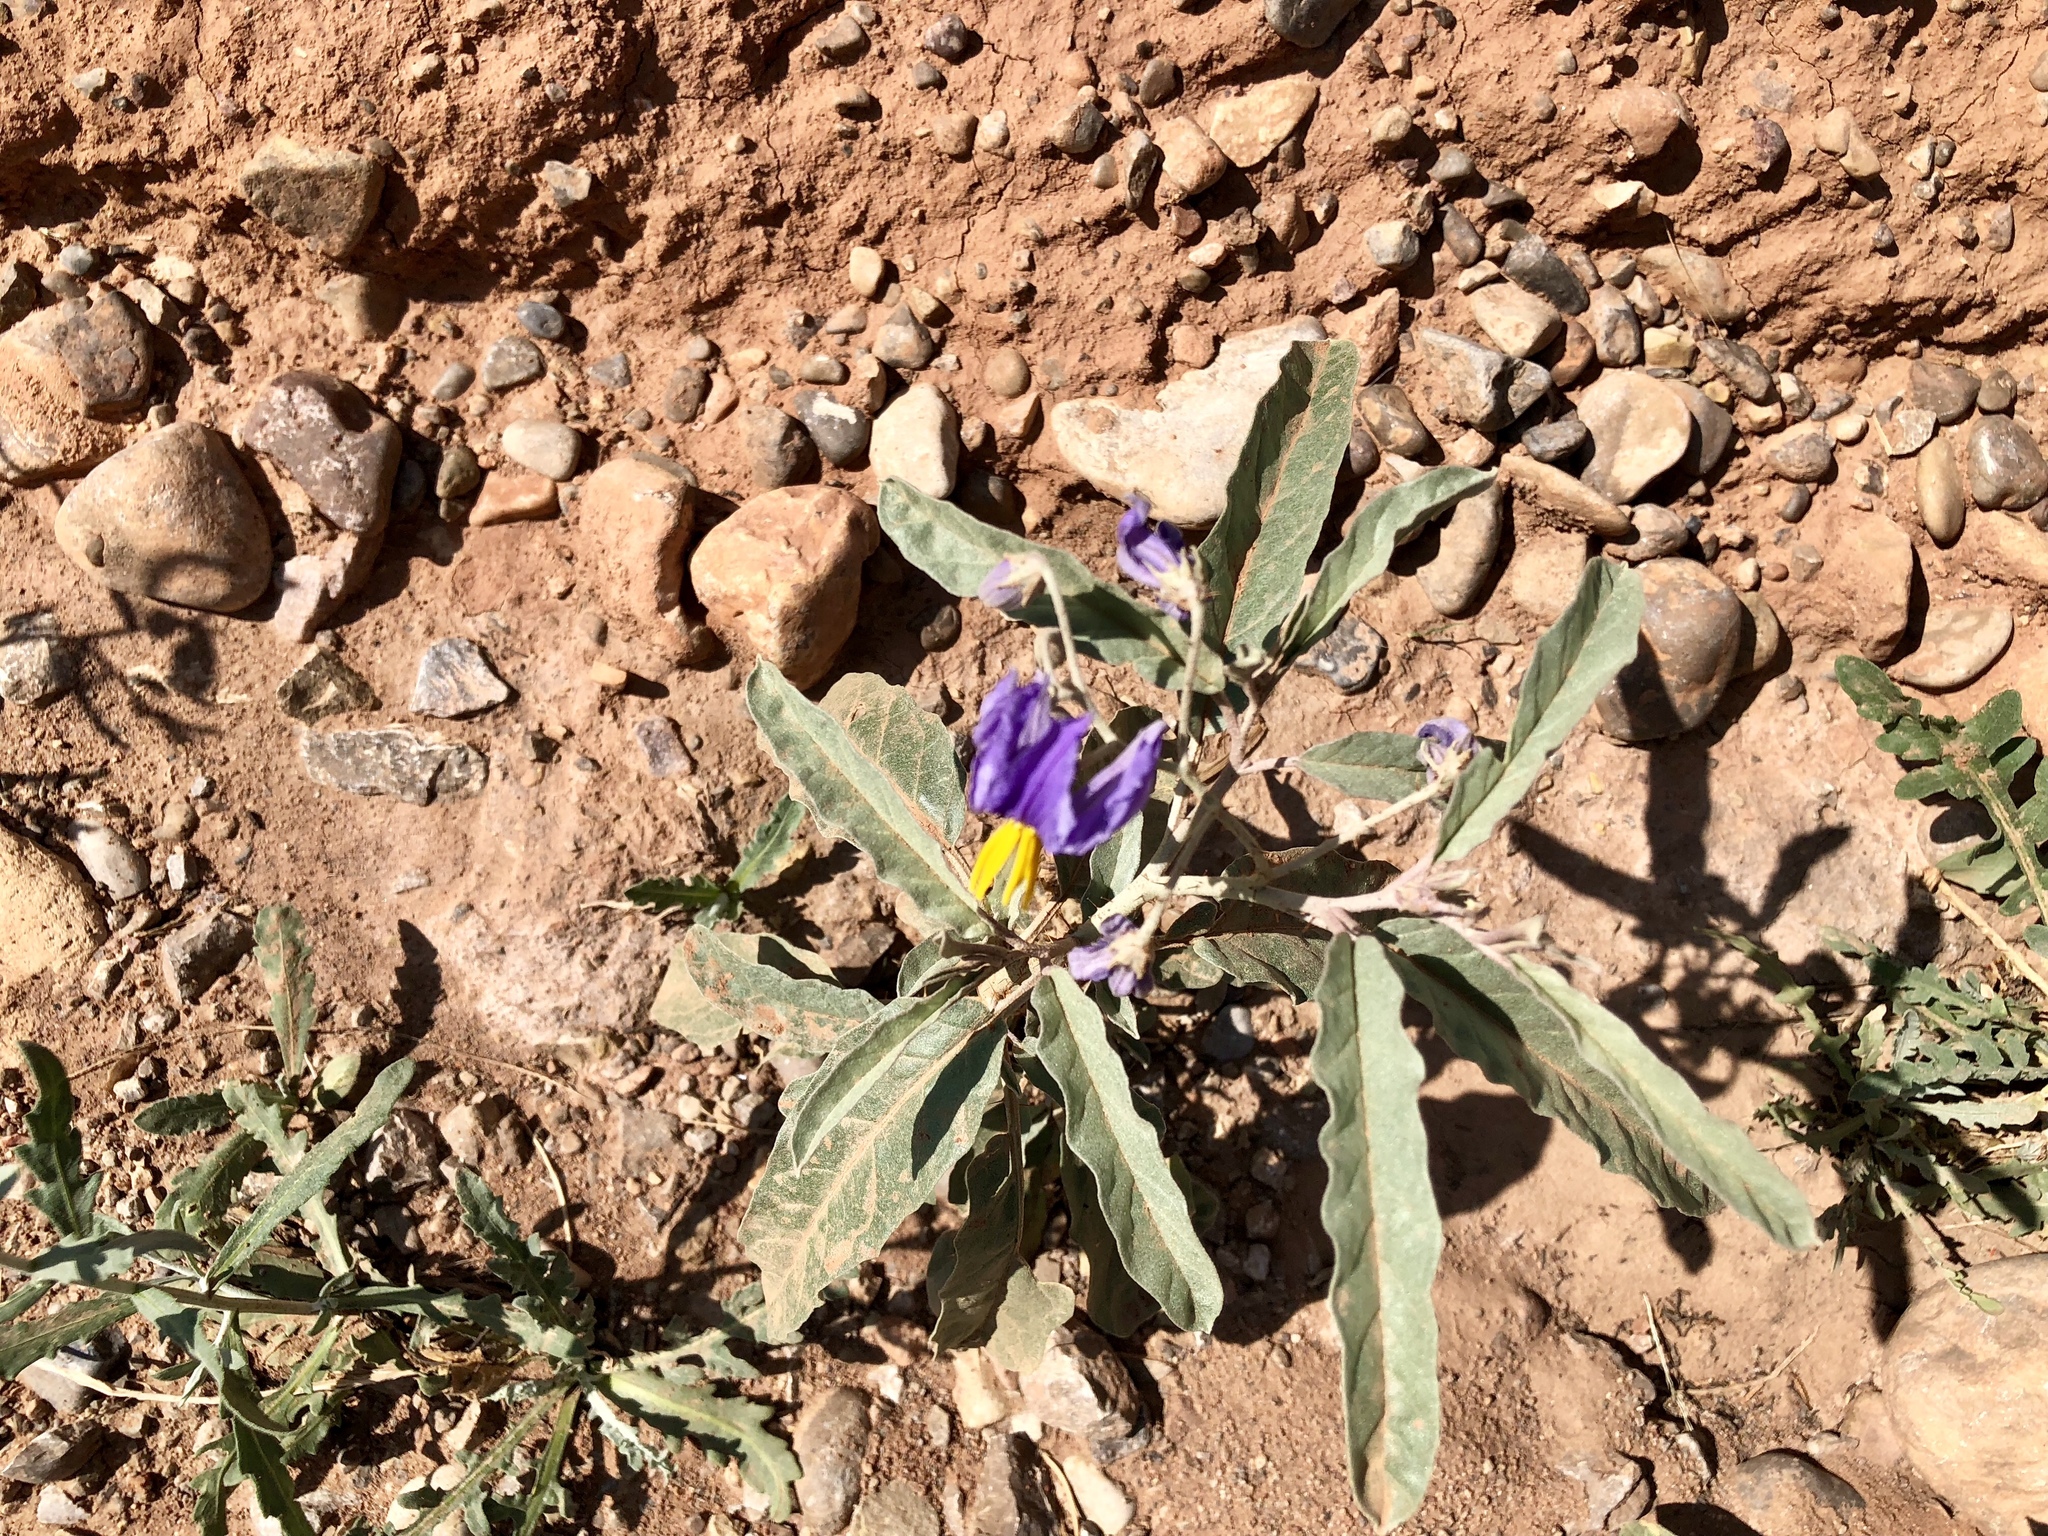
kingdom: Plantae
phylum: Tracheophyta
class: Magnoliopsida
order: Solanales
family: Solanaceae
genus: Solanum
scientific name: Solanum elaeagnifolium
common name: Silverleaf nightshade
